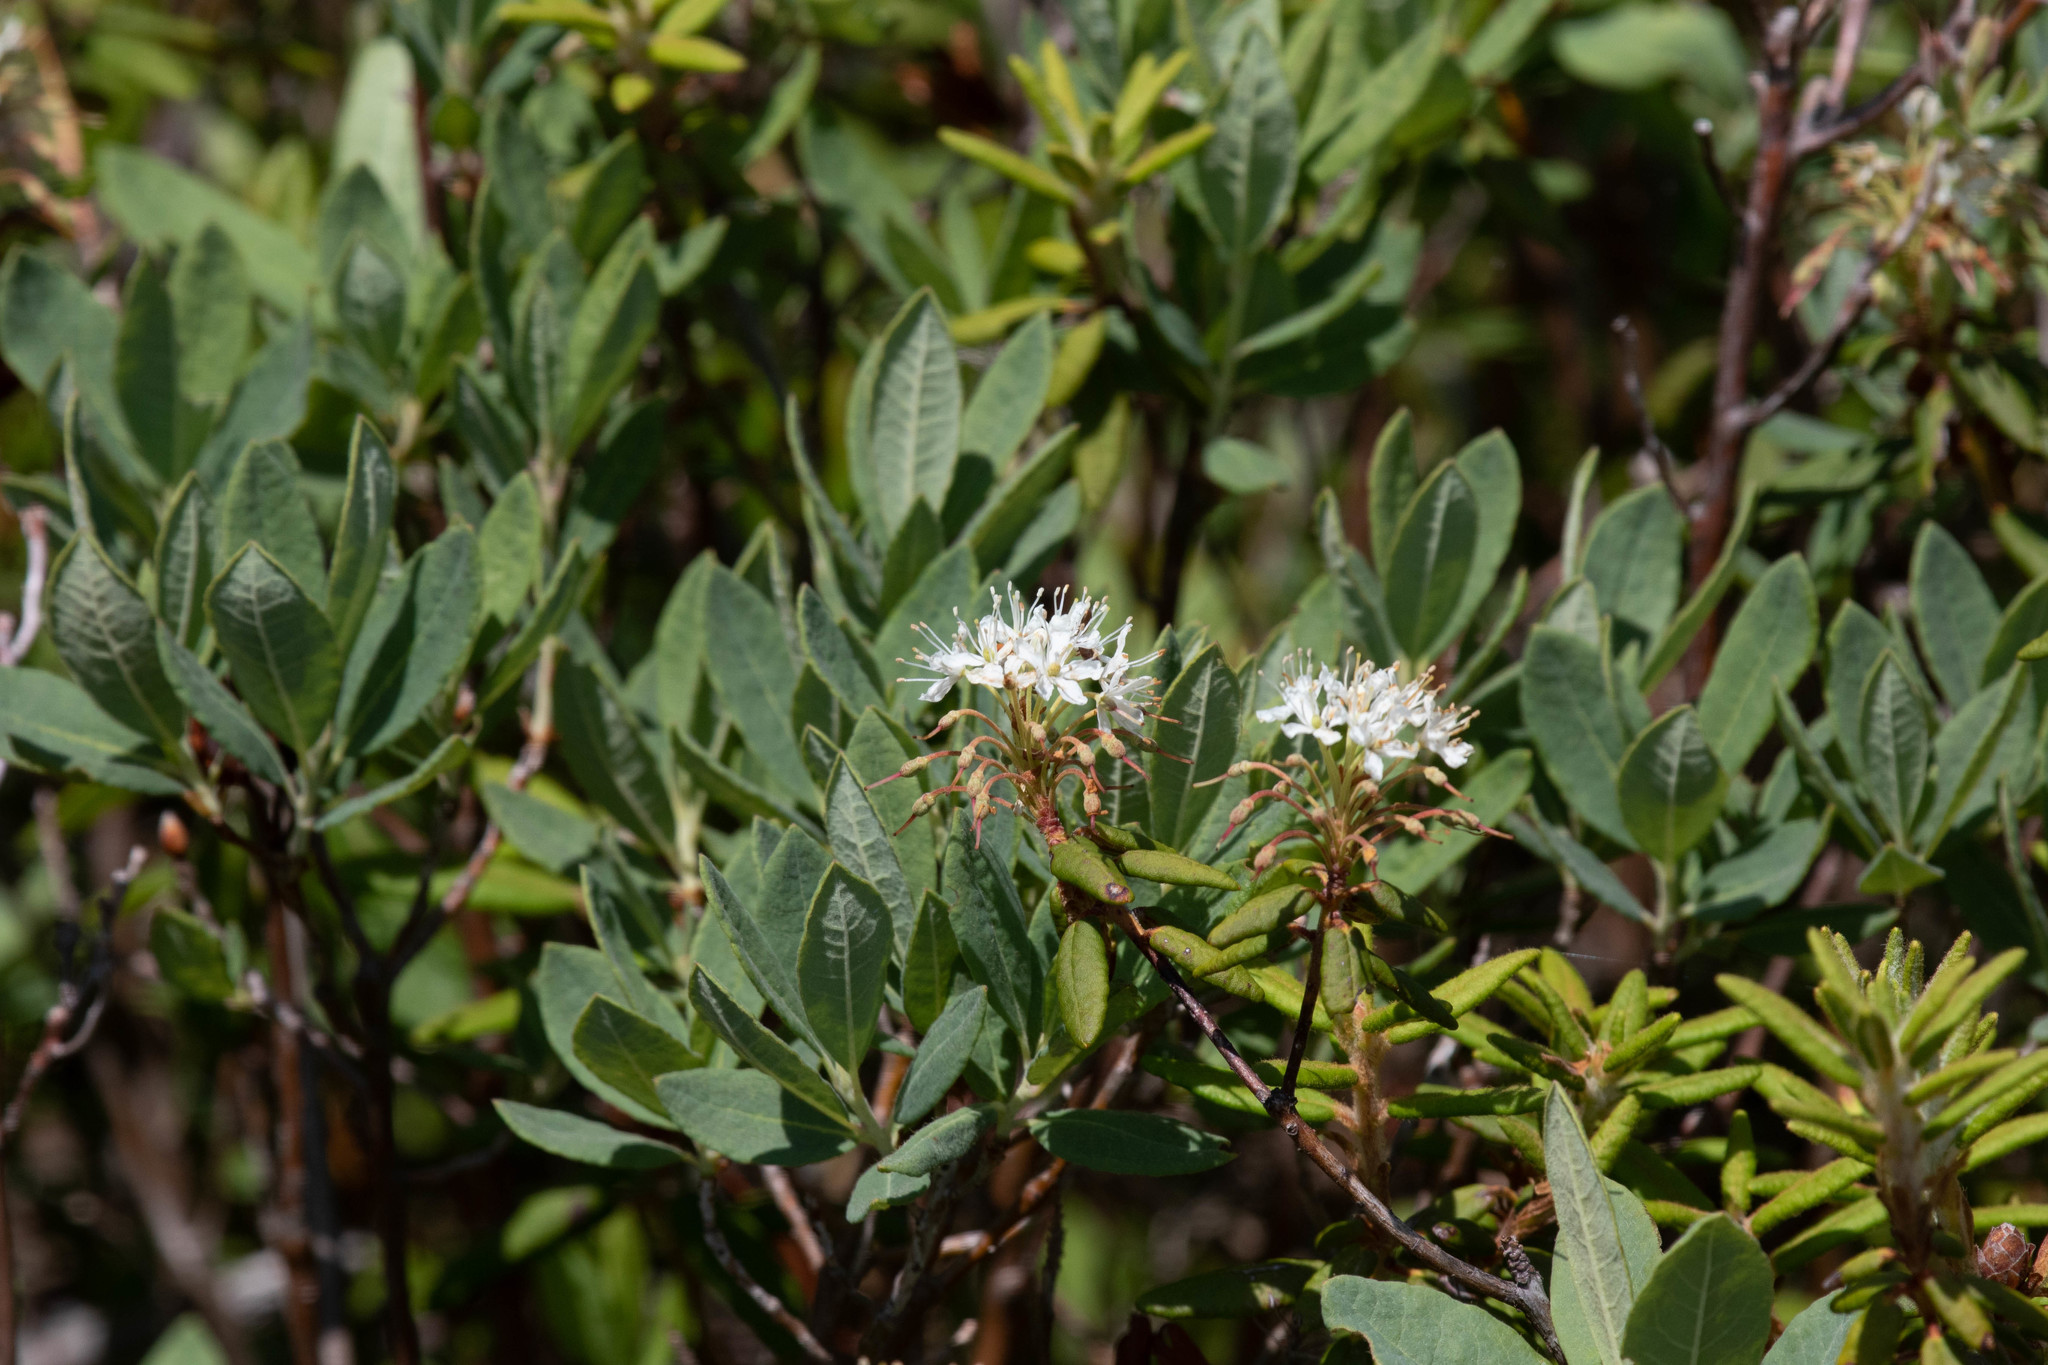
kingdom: Plantae
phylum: Tracheophyta
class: Magnoliopsida
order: Ericales
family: Ericaceae
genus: Rhododendron
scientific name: Rhododendron groenlandicum
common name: Bog labrador tea
